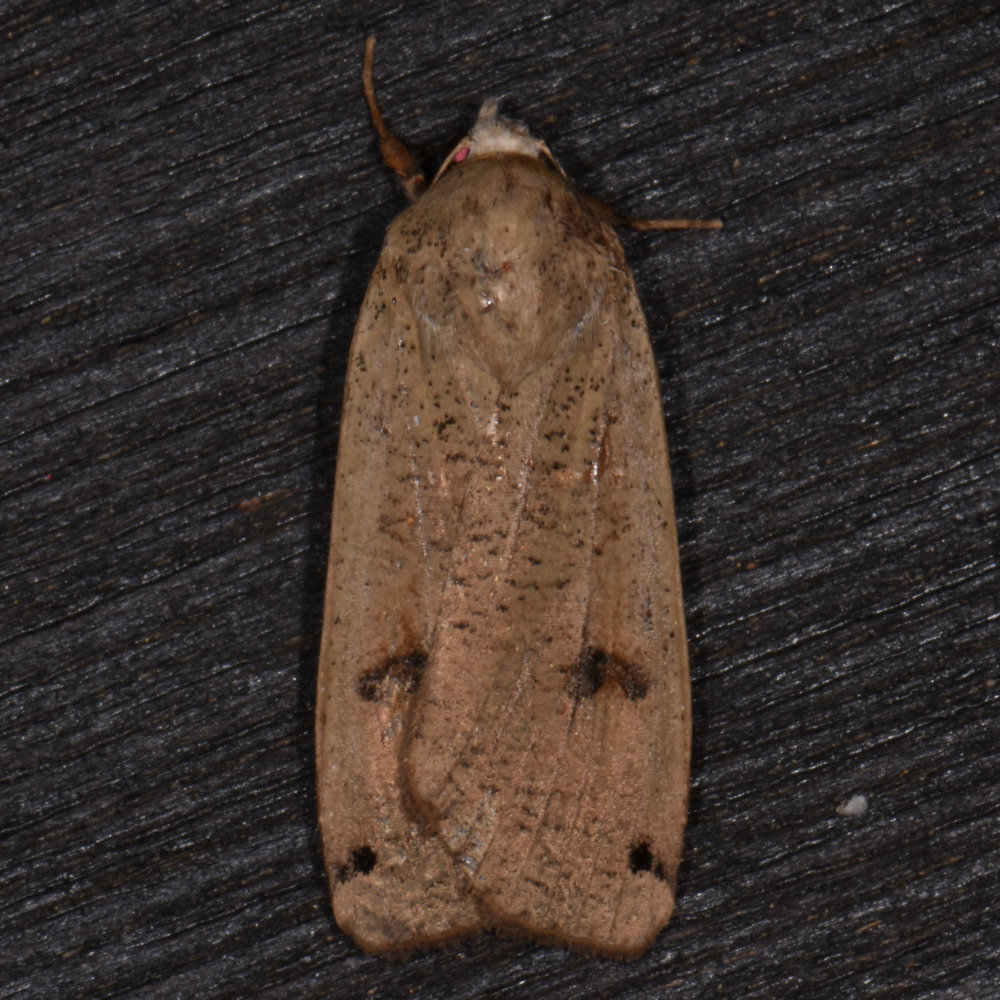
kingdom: Animalia
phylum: Arthropoda
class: Insecta
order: Lepidoptera
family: Noctuidae
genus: Noctua
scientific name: Noctua pronuba
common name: Large yellow underwing
